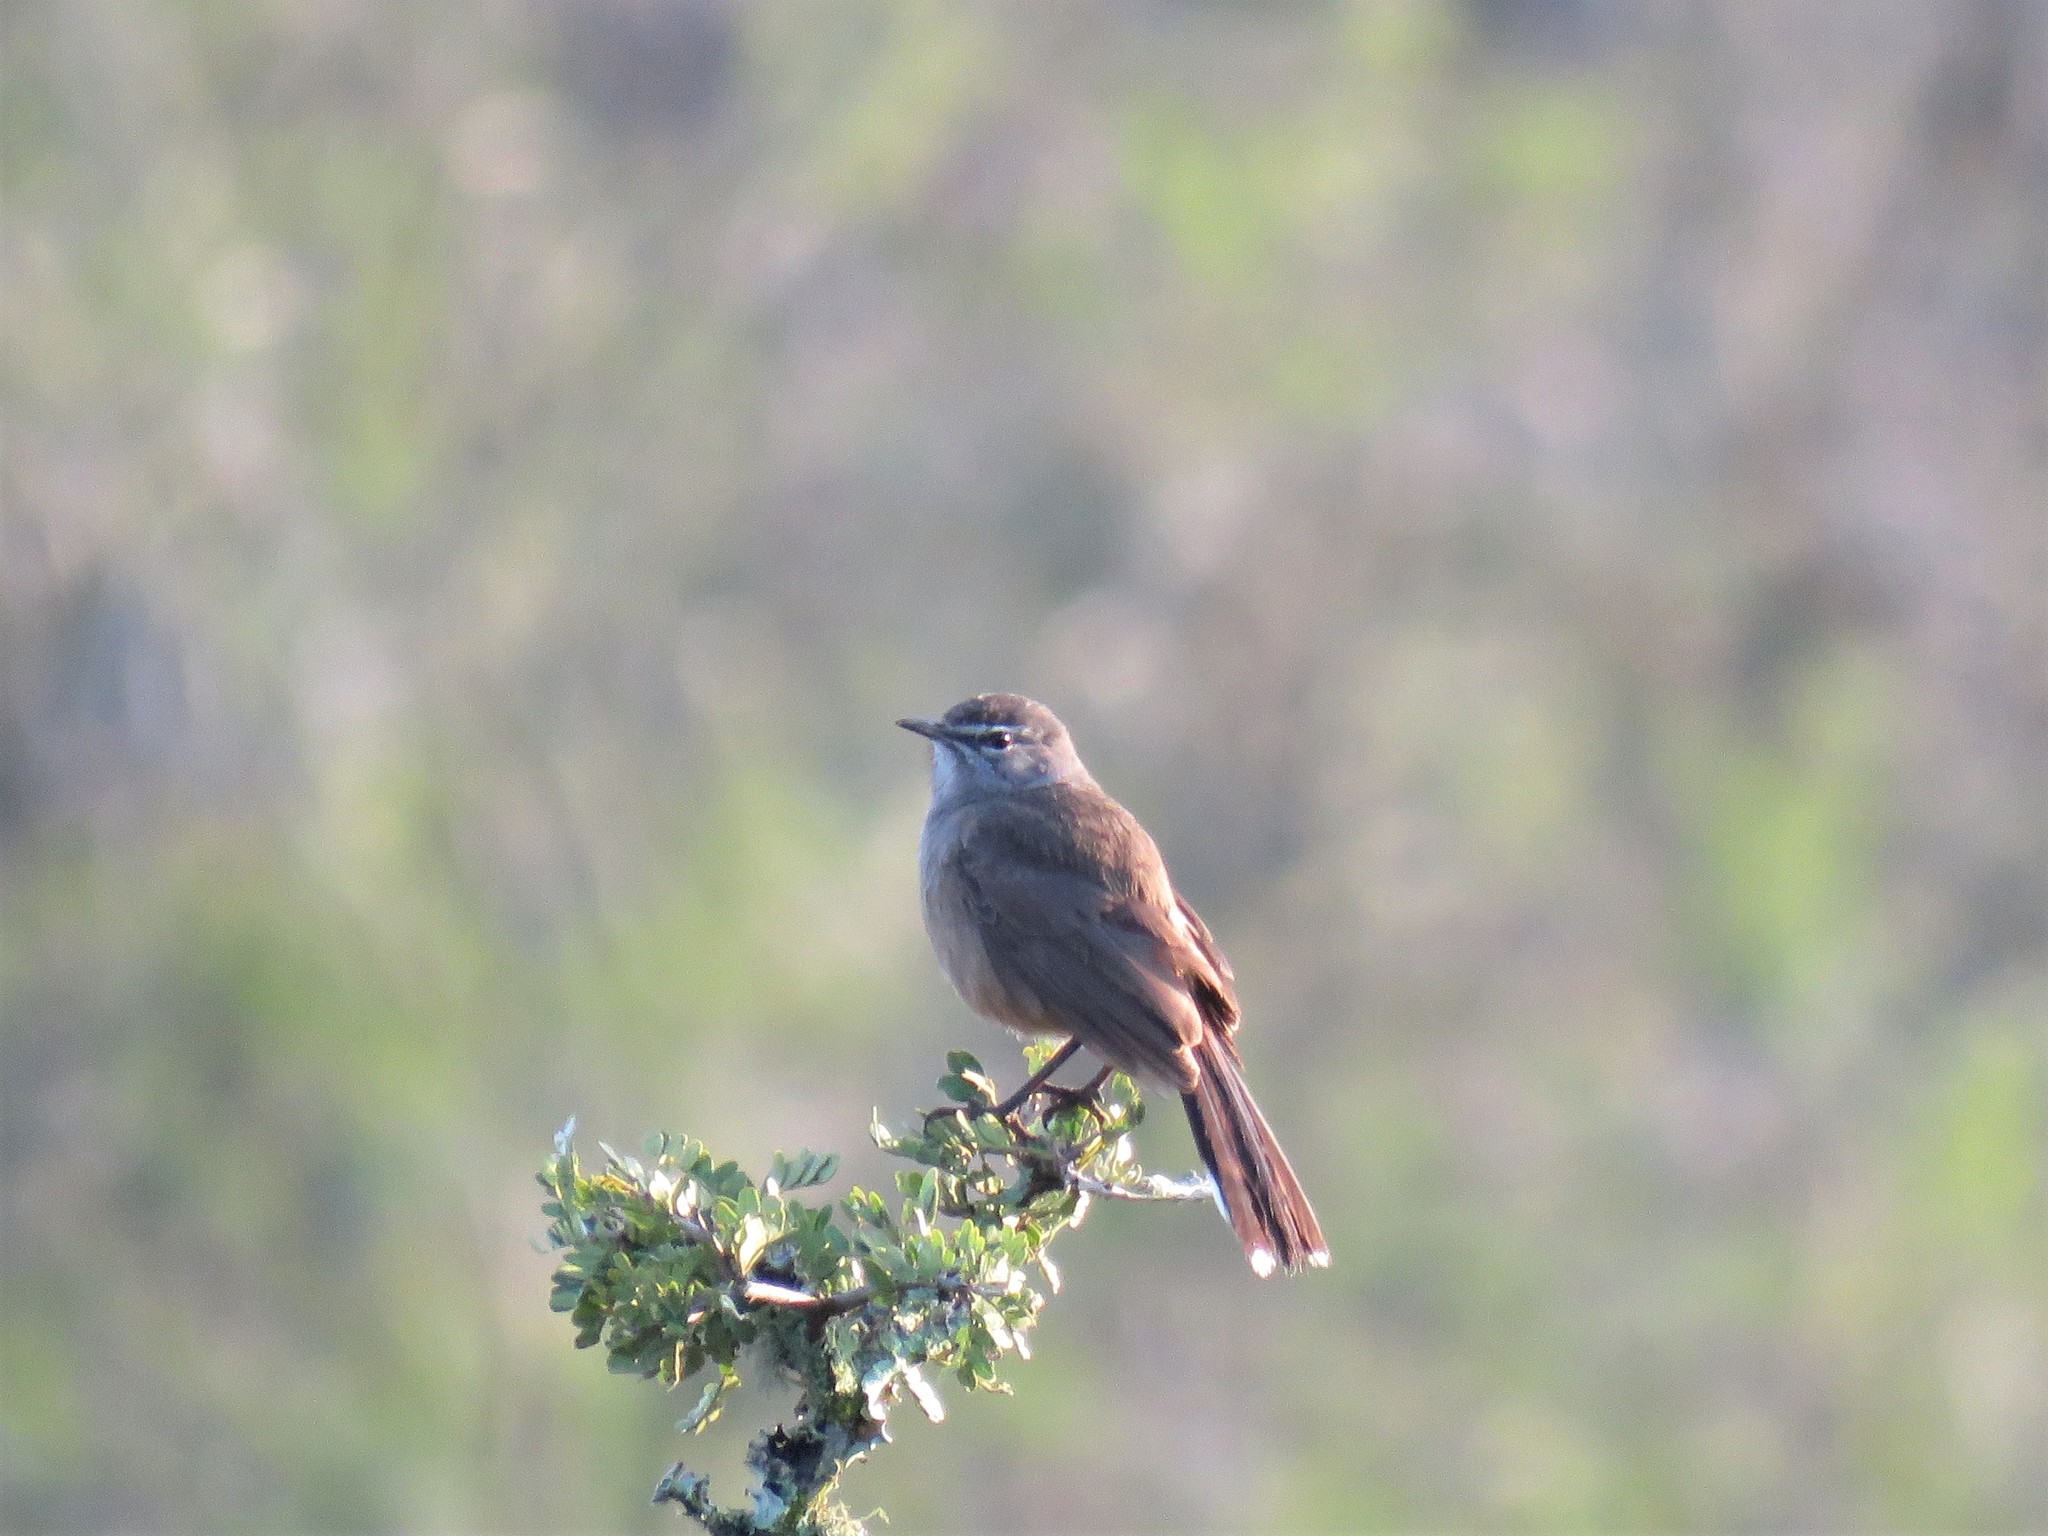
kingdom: Animalia
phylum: Chordata
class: Aves
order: Passeriformes
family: Muscicapidae
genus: Erythropygia
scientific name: Erythropygia coryphoeus
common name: Karoo scrub robin
